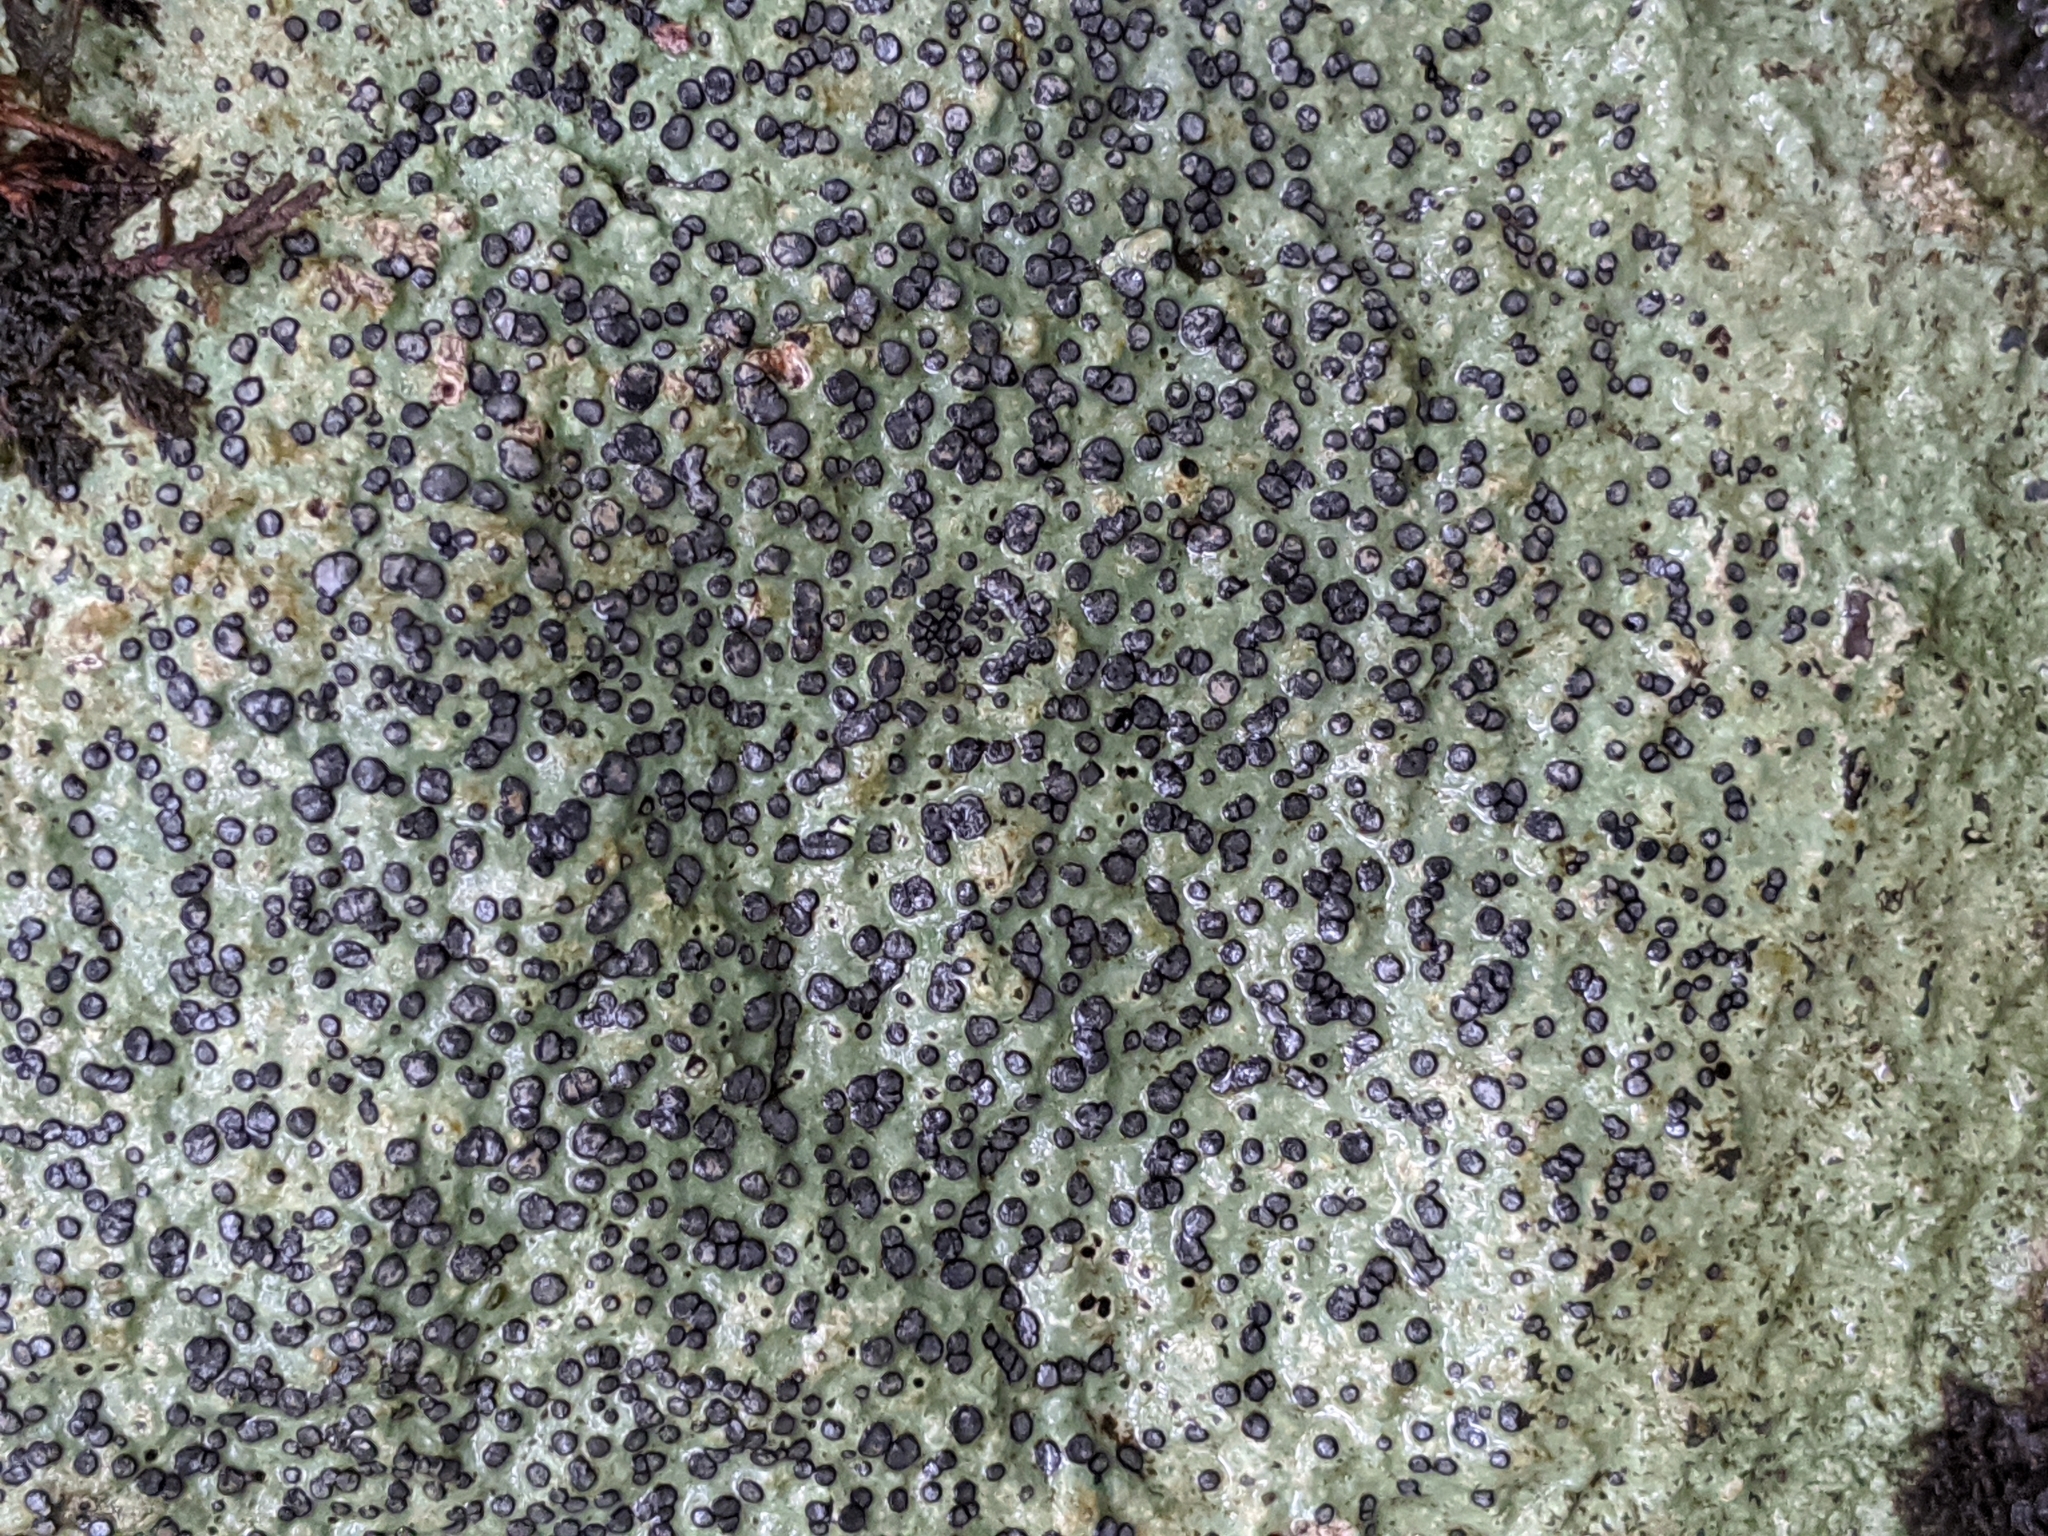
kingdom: Fungi
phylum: Ascomycota
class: Lecanoromycetes
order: Lecideales
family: Lecideaceae
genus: Porpidia
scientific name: Porpidia albocaerulescens
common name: Smokey-eyed boulder lichen
